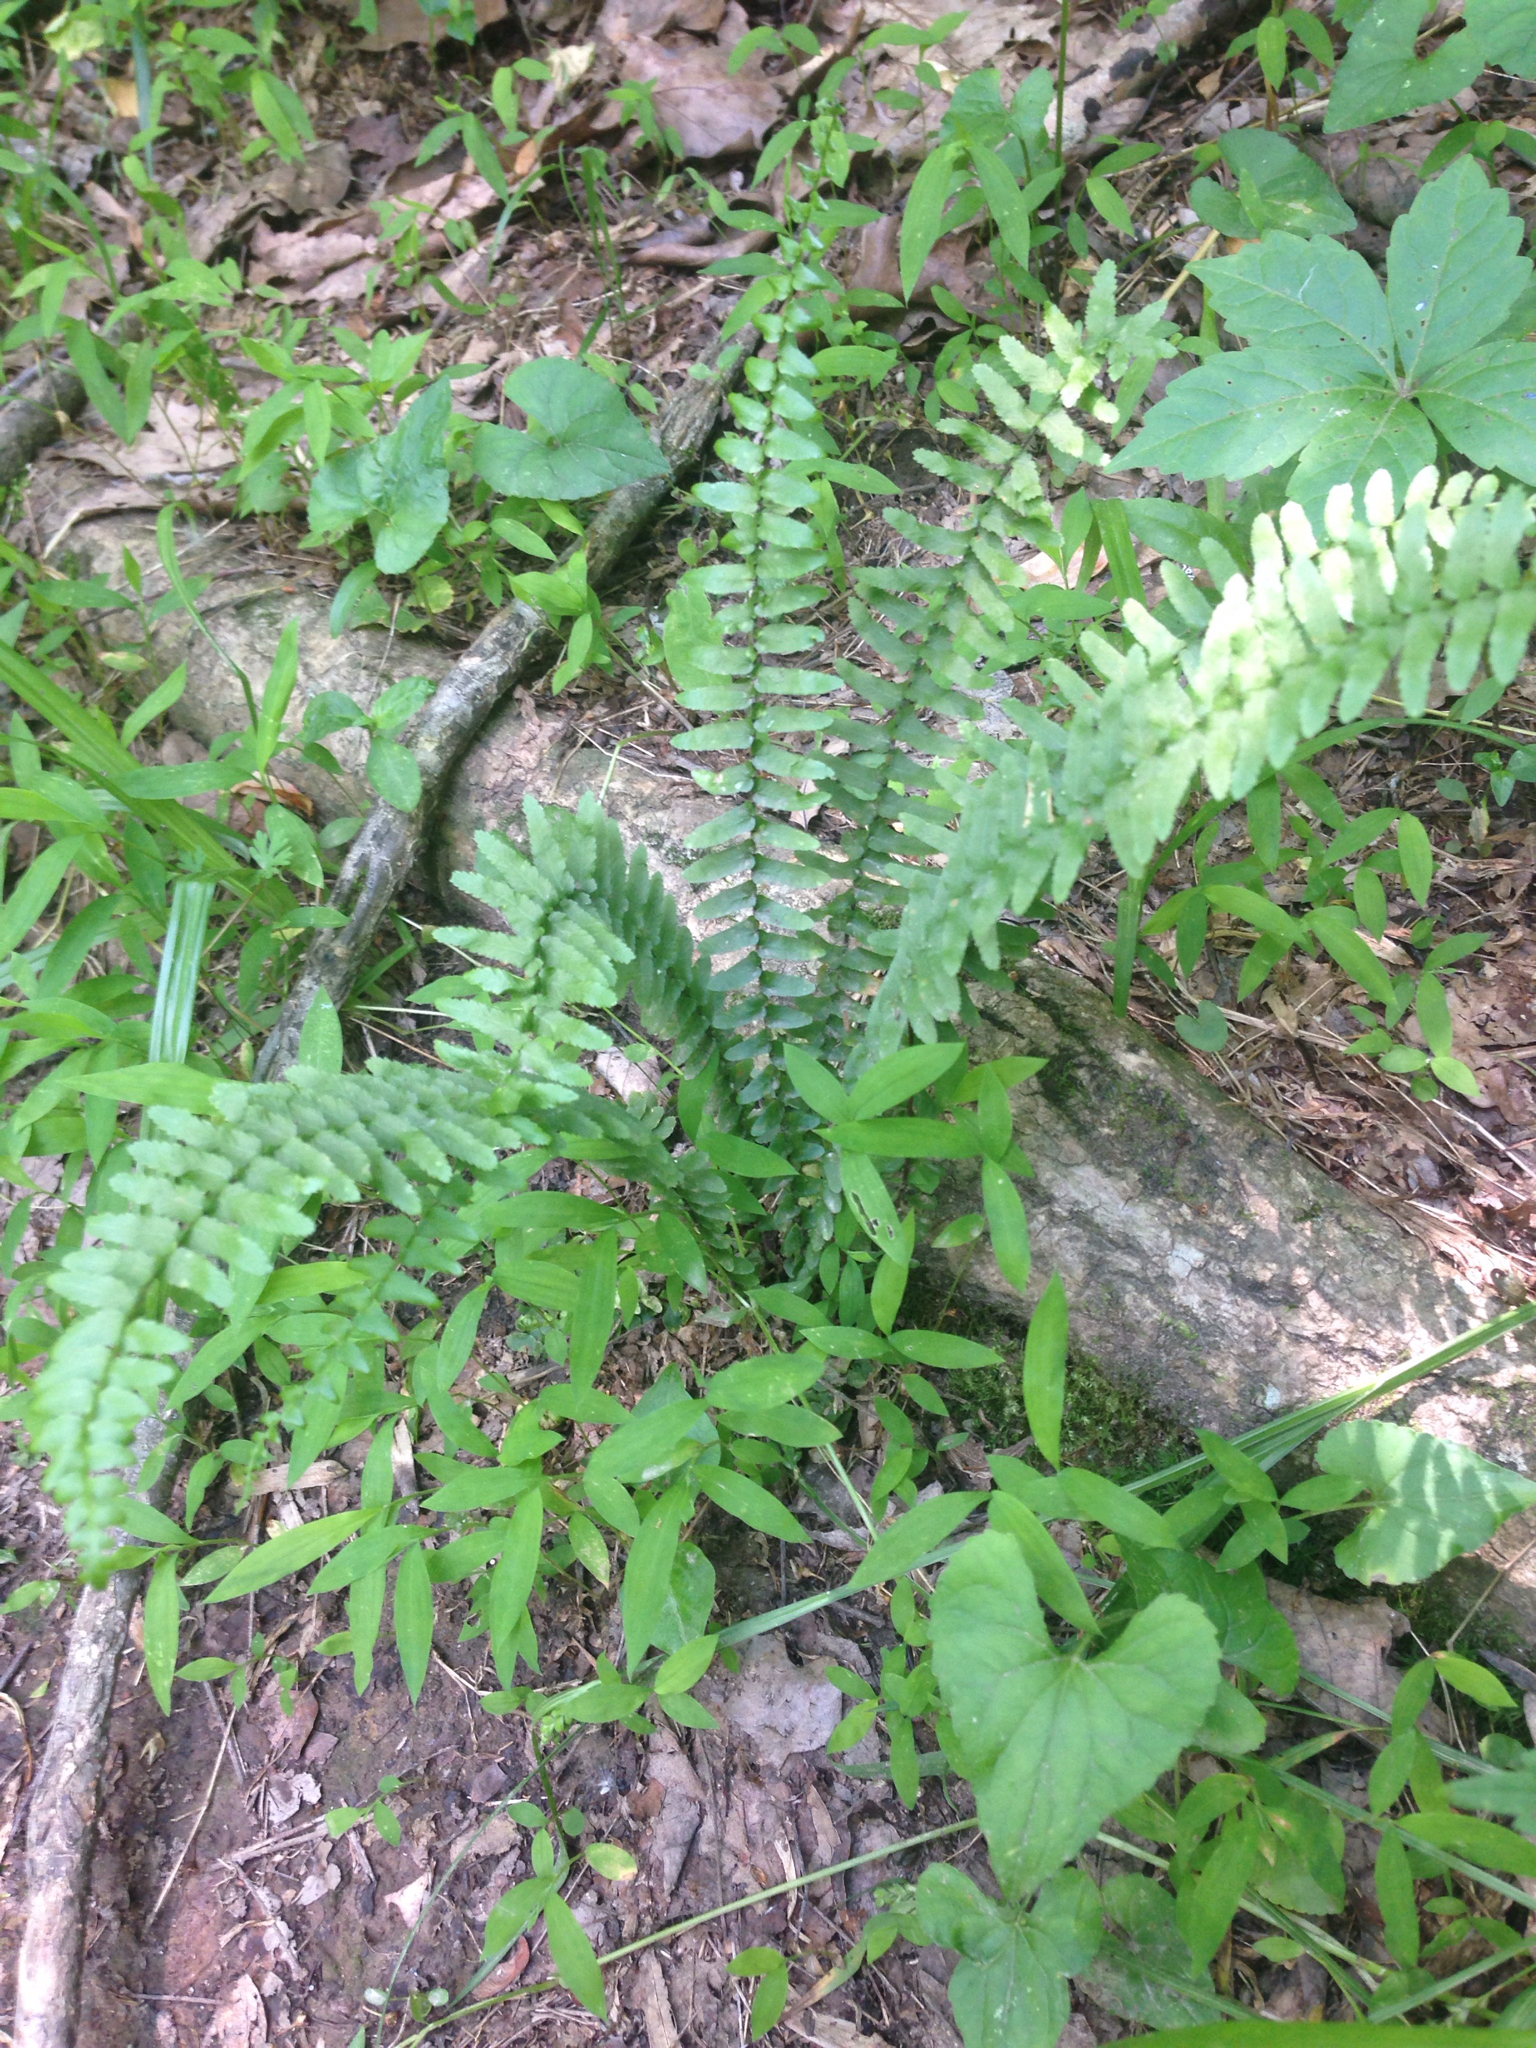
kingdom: Plantae
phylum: Tracheophyta
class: Polypodiopsida
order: Polypodiales
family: Aspleniaceae
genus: Asplenium
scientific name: Asplenium platyneuron
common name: Ebony spleenwort
